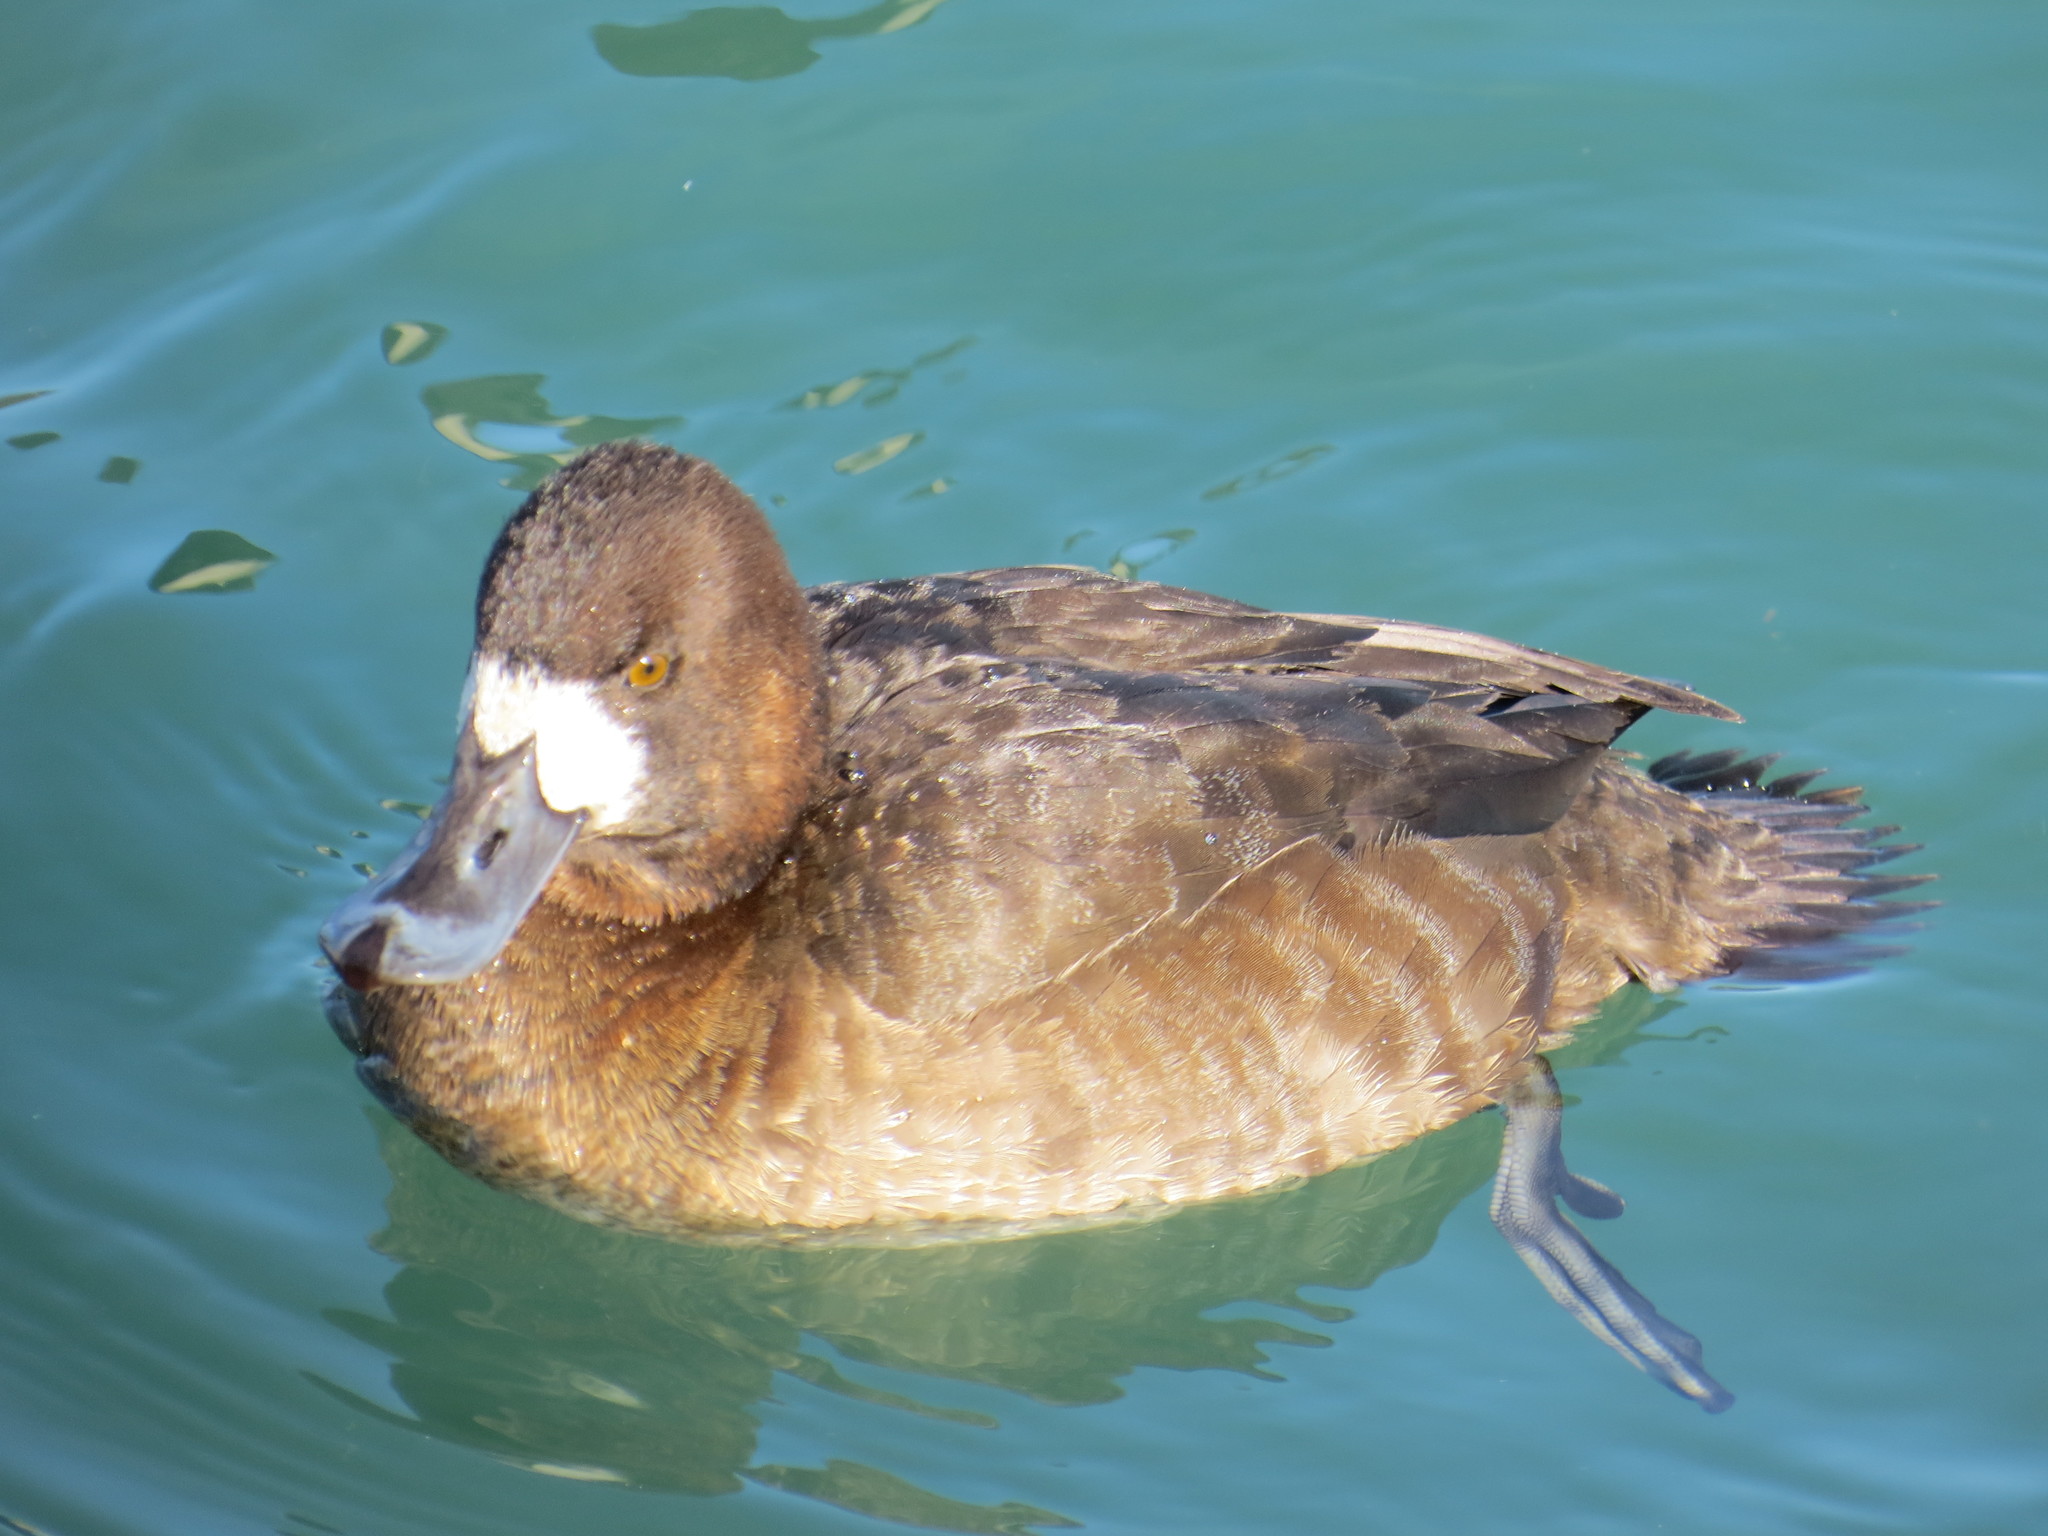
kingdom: Animalia
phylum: Chordata
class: Aves
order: Anseriformes
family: Anatidae
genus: Aythya
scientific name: Aythya marila
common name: Greater scaup
